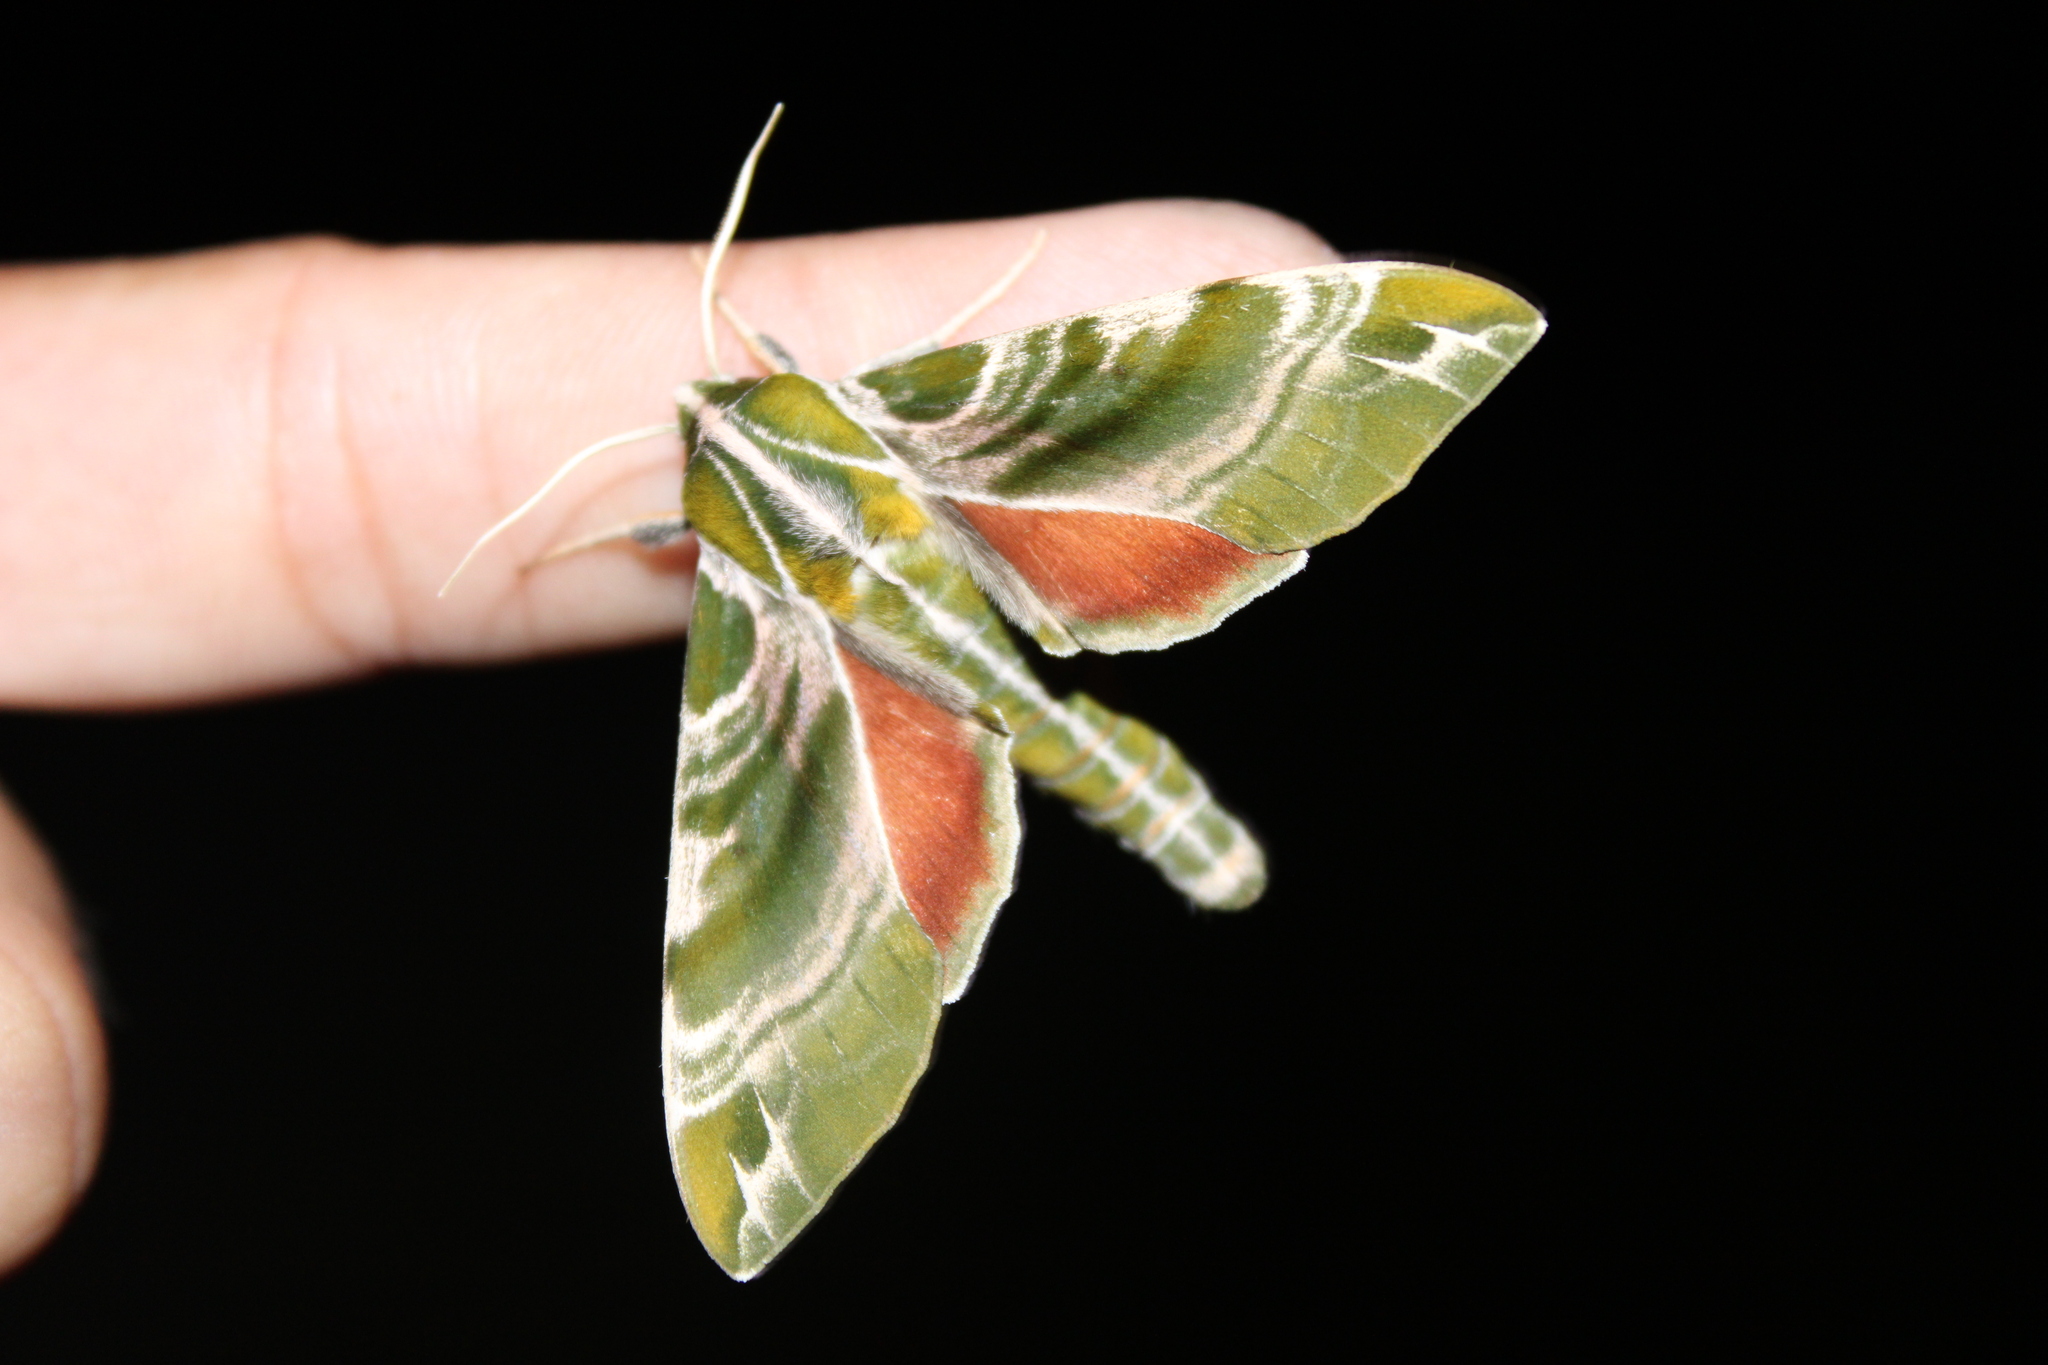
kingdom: Animalia
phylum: Arthropoda
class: Insecta
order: Lepidoptera
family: Sphingidae
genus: Darapsa
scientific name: Darapsa versicolor
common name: Hydrangea sphinx
